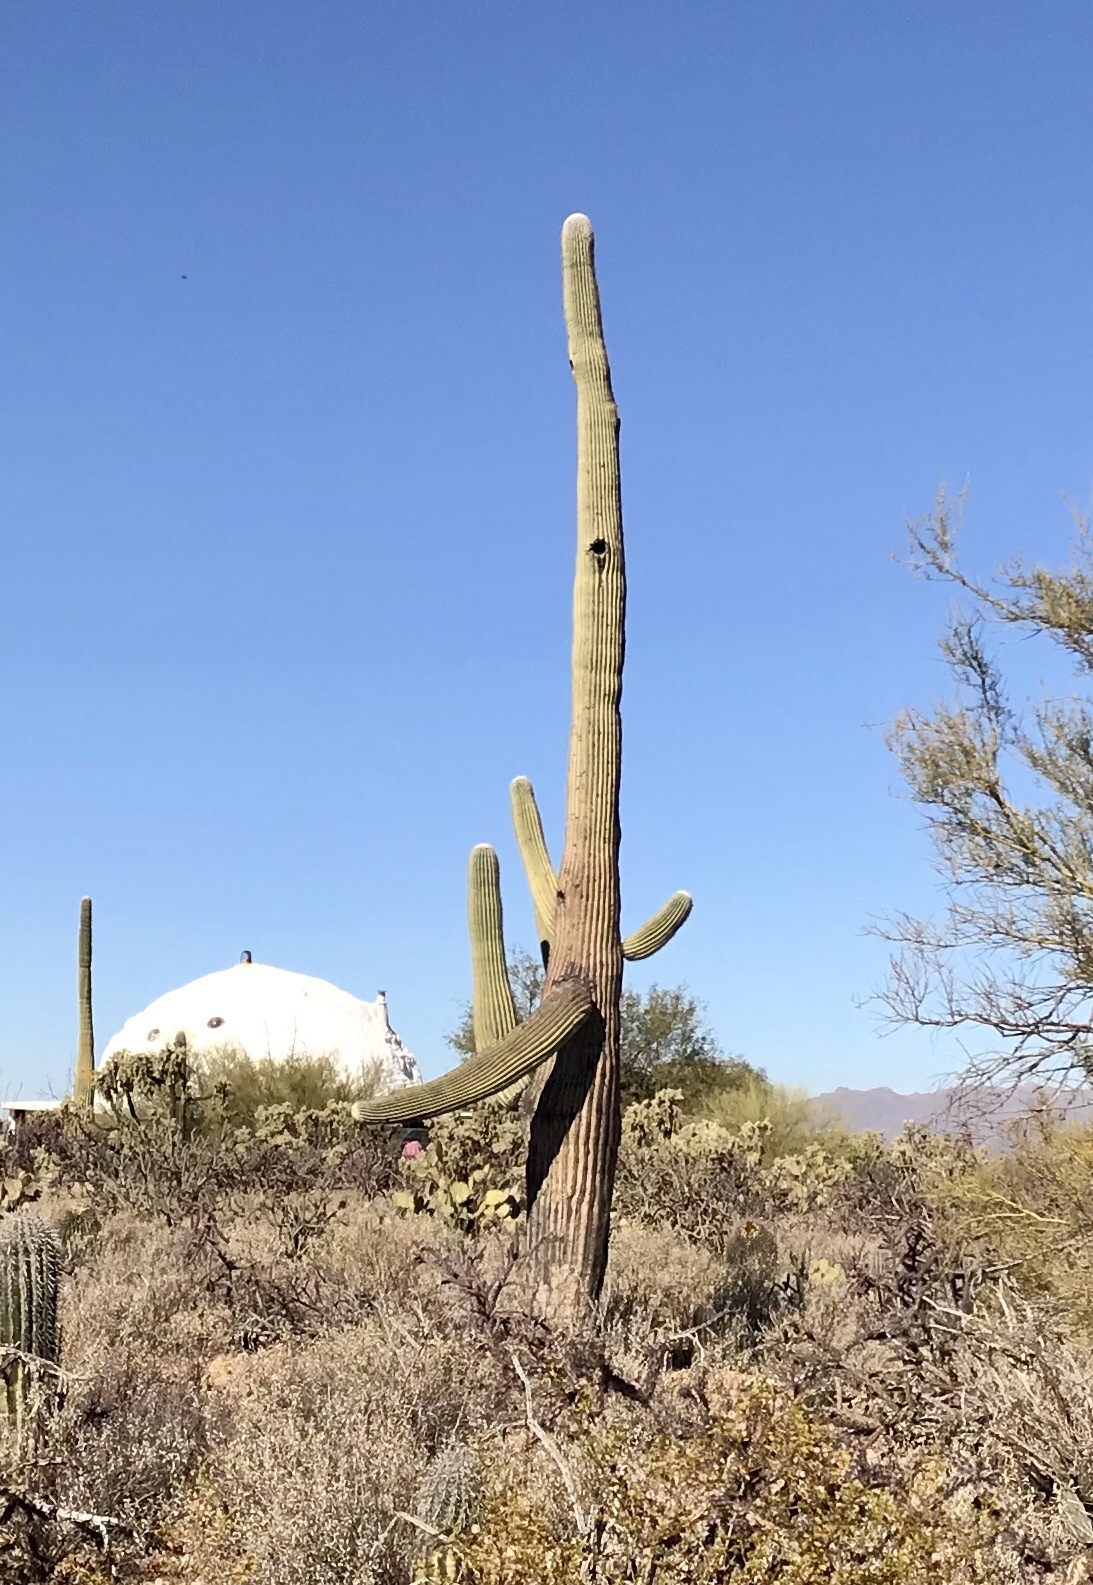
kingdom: Plantae
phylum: Tracheophyta
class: Magnoliopsida
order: Caryophyllales
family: Cactaceae
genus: Carnegiea
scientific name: Carnegiea gigantea
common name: Saguaro
